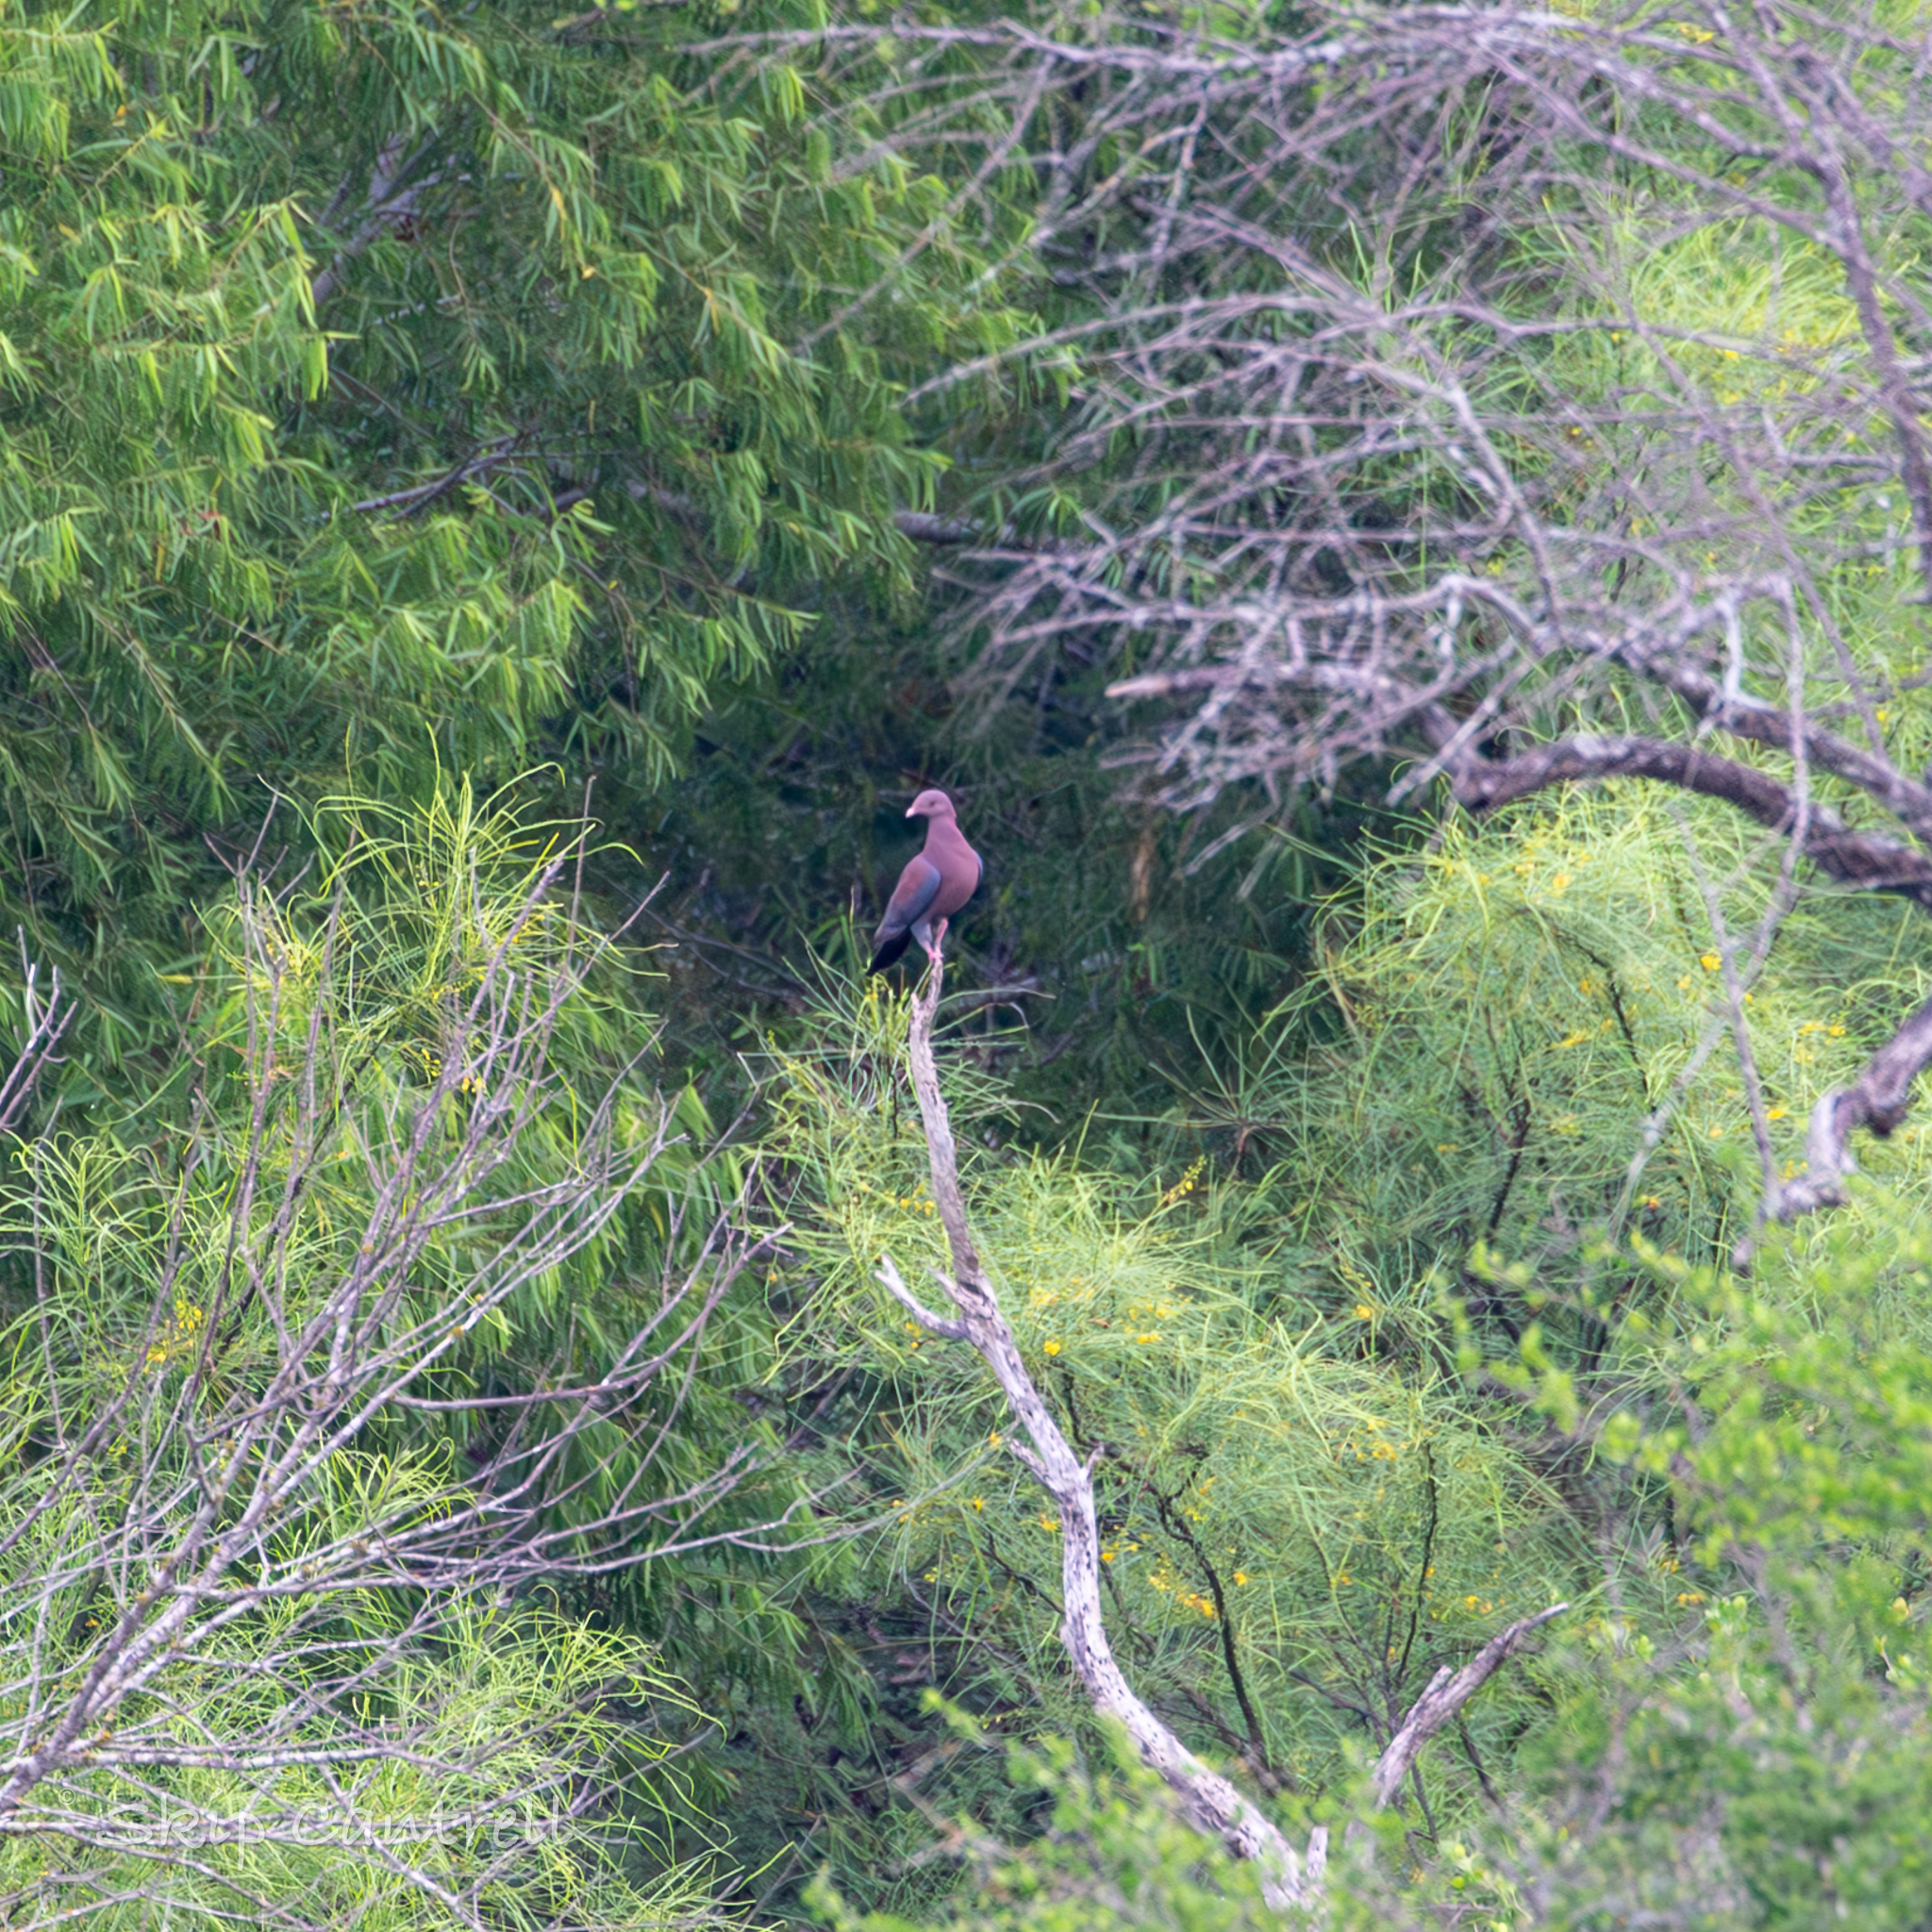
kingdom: Animalia
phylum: Chordata
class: Aves
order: Columbiformes
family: Columbidae
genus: Patagioenas
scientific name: Patagioenas flavirostris
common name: Red-billed pigeon
